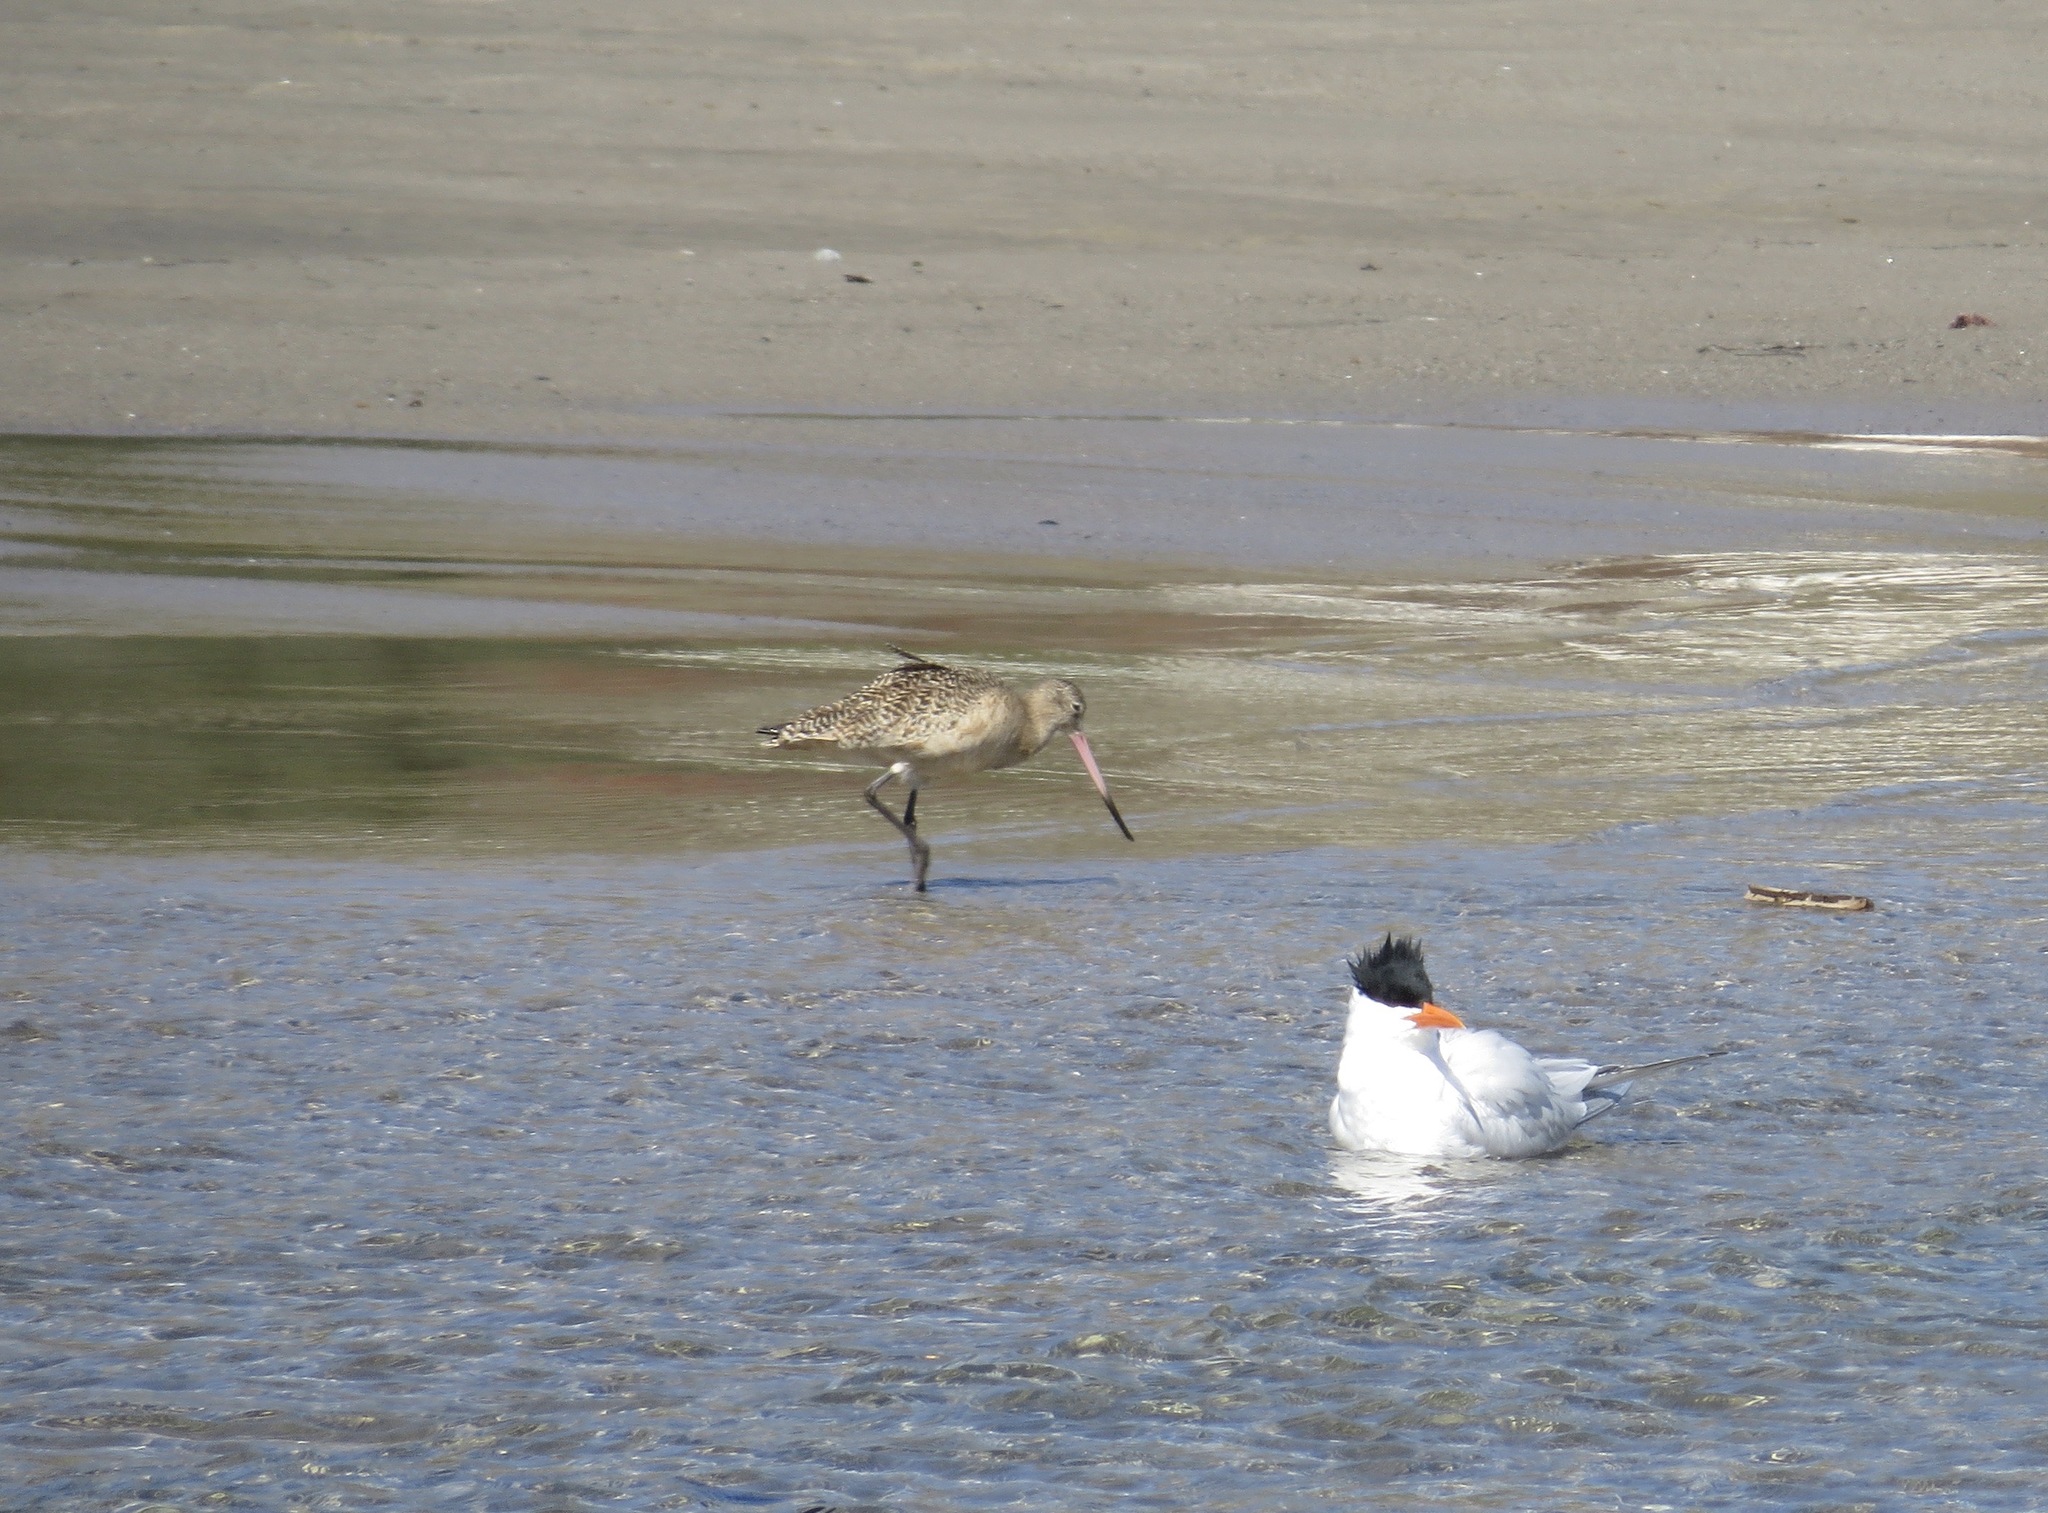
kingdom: Animalia
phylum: Chordata
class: Aves
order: Charadriiformes
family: Scolopacidae
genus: Limosa
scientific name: Limosa fedoa
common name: Marbled godwit
